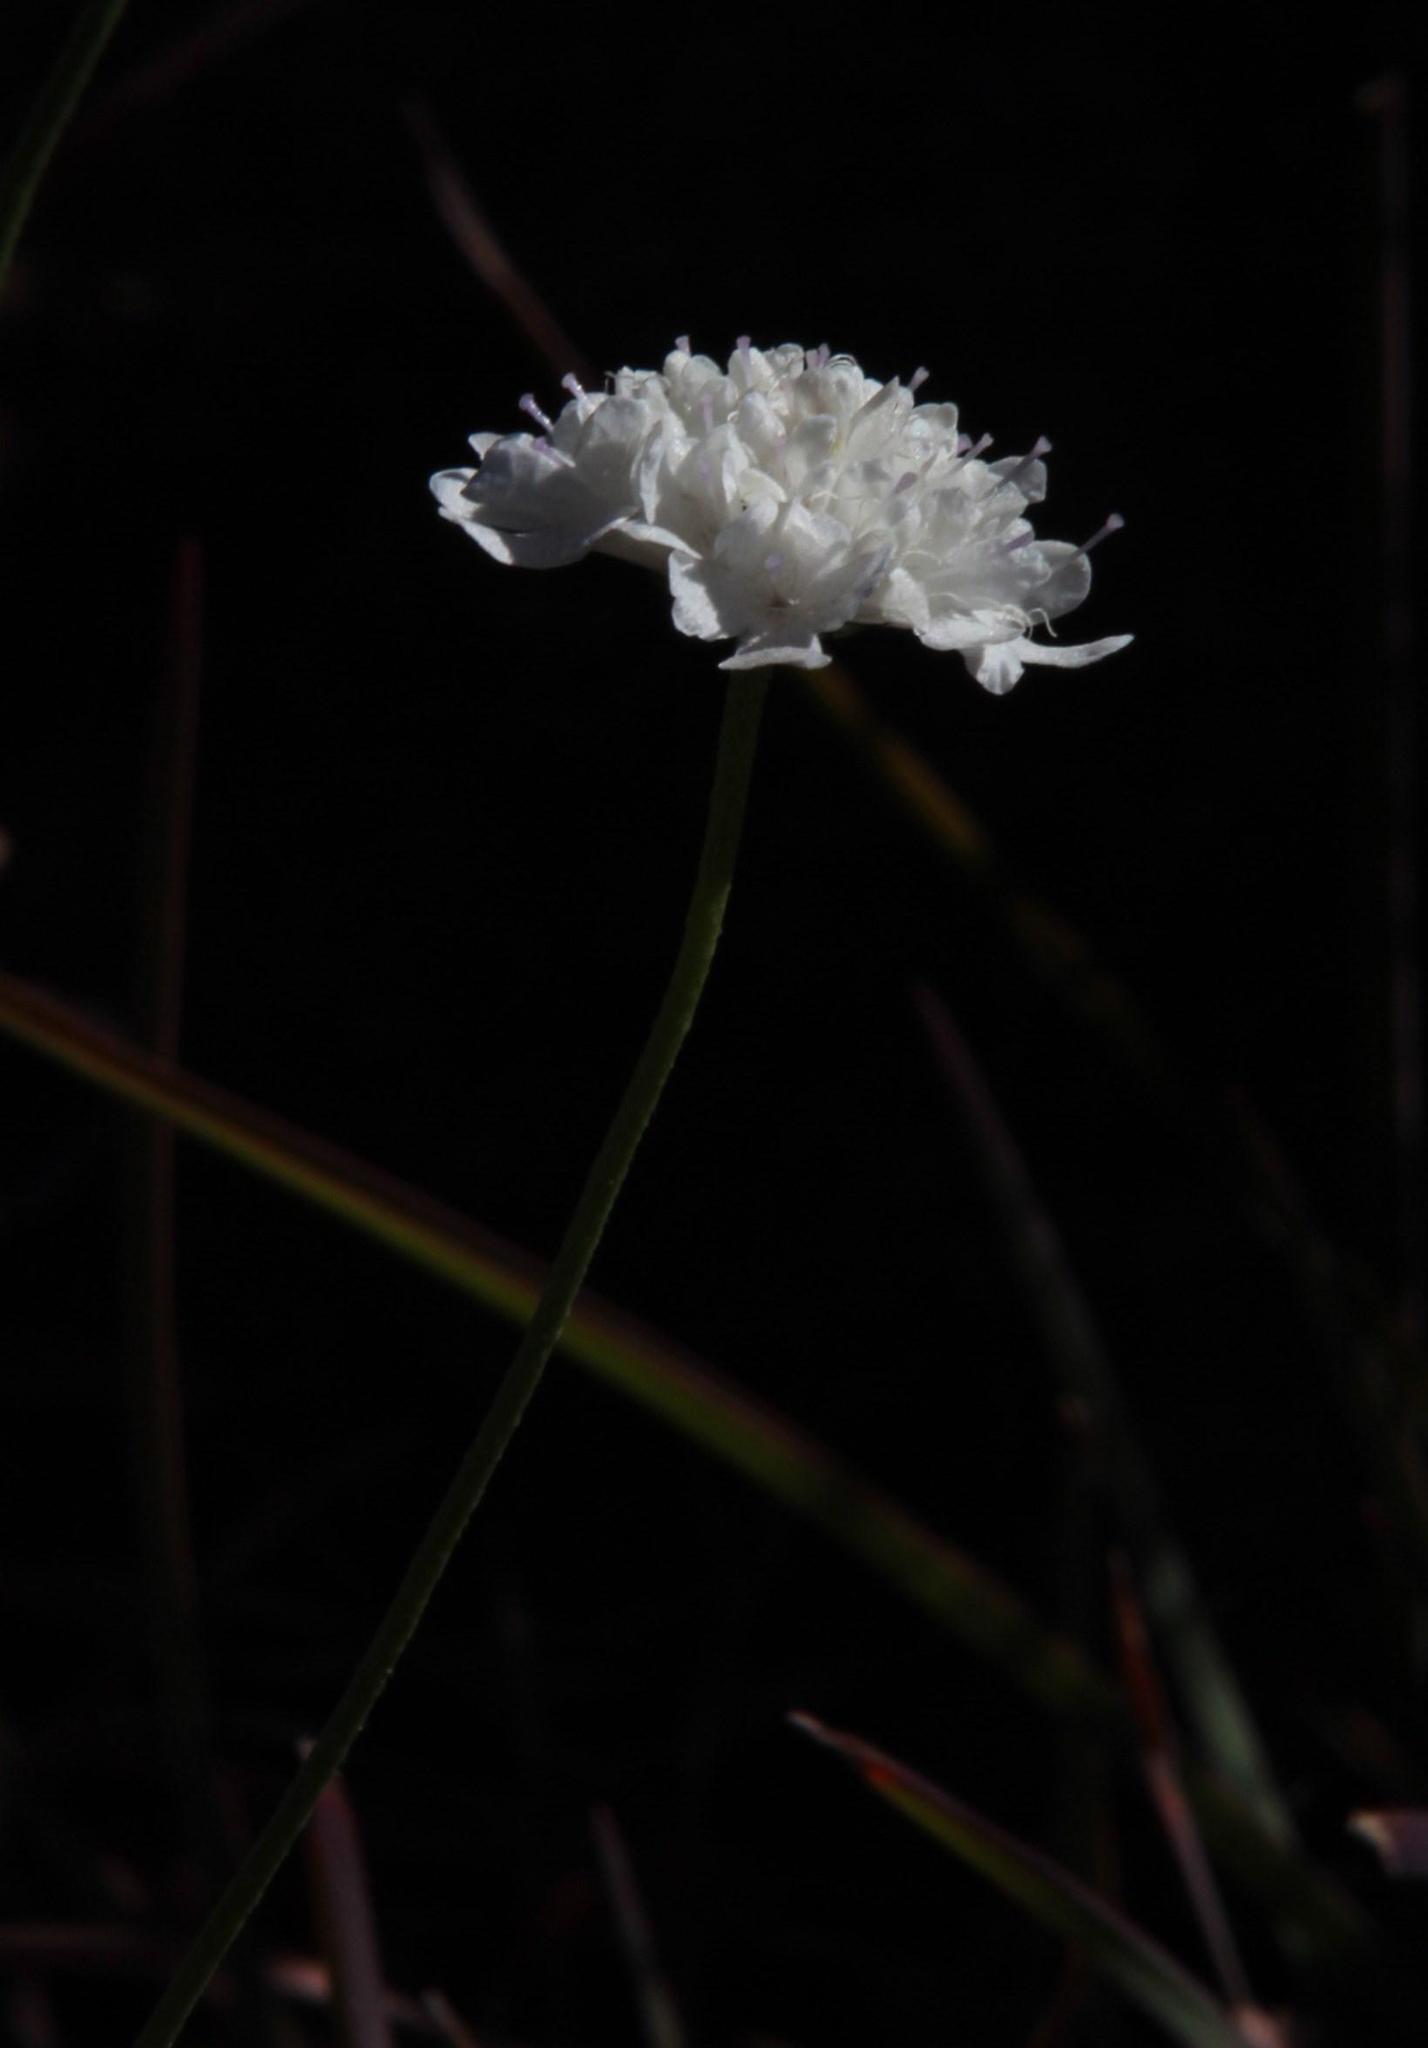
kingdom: Plantae
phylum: Tracheophyta
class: Magnoliopsida
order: Dipsacales
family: Caprifoliaceae
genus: Scabiosa
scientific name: Scabiosa columbaria
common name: Small scabious
